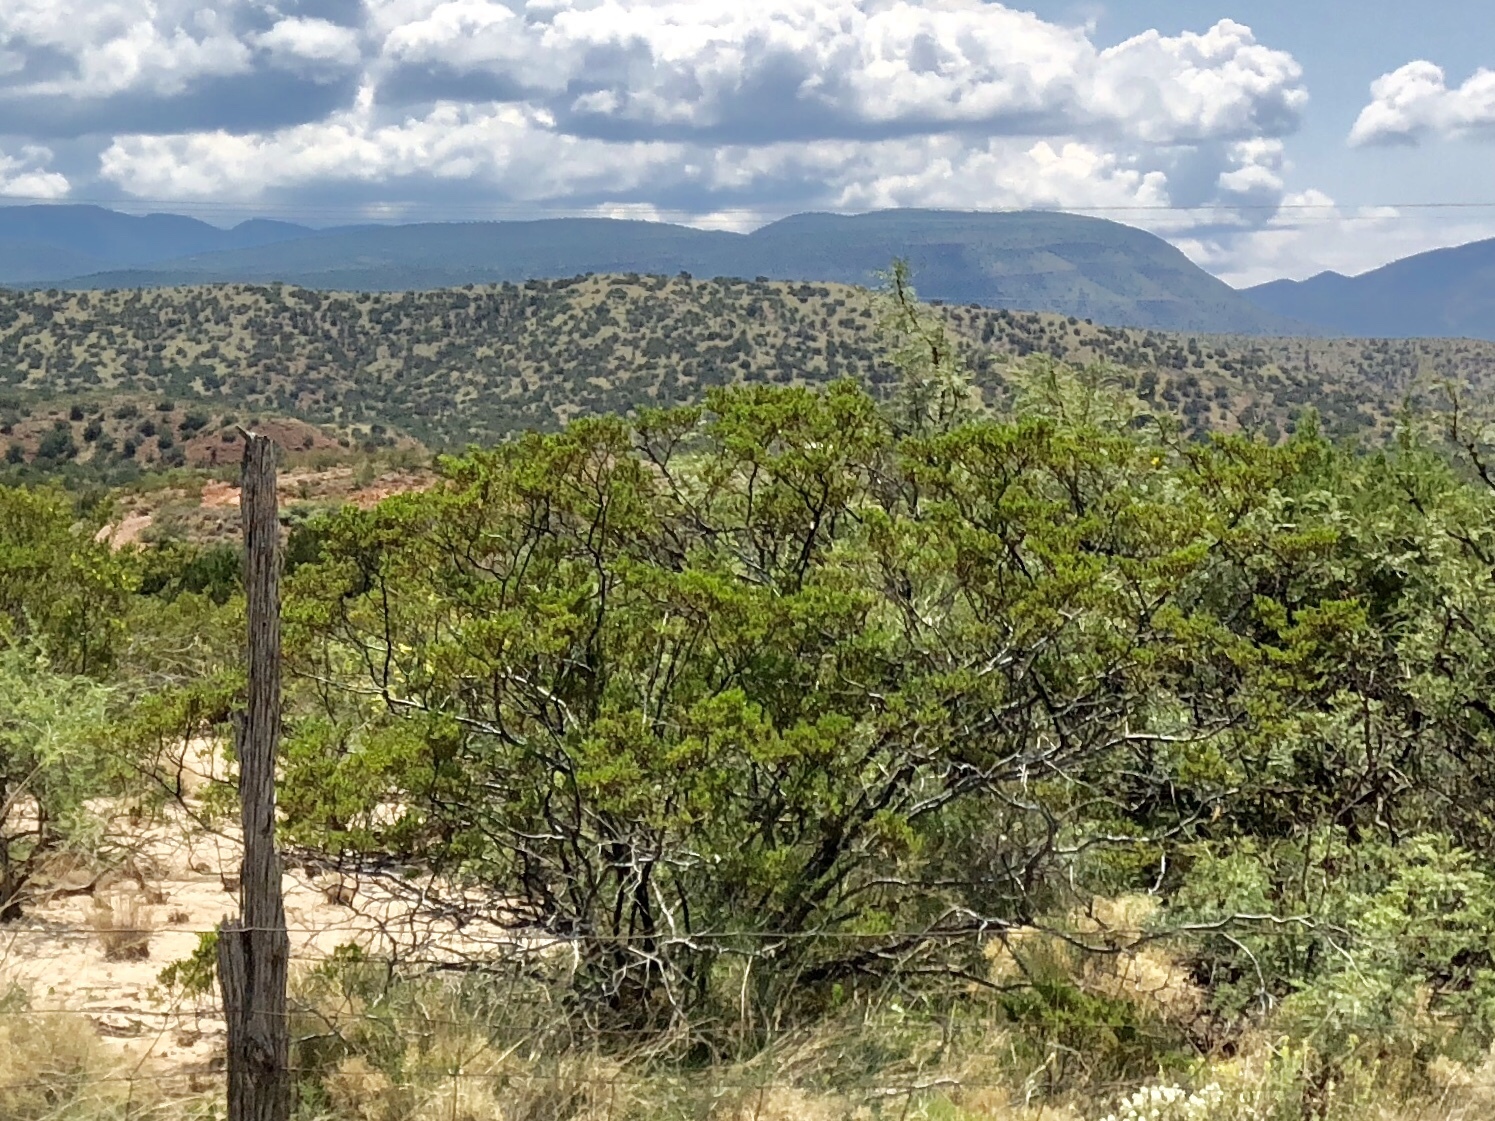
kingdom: Plantae
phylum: Tracheophyta
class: Magnoliopsida
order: Zygophyllales
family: Zygophyllaceae
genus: Larrea
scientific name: Larrea tridentata
